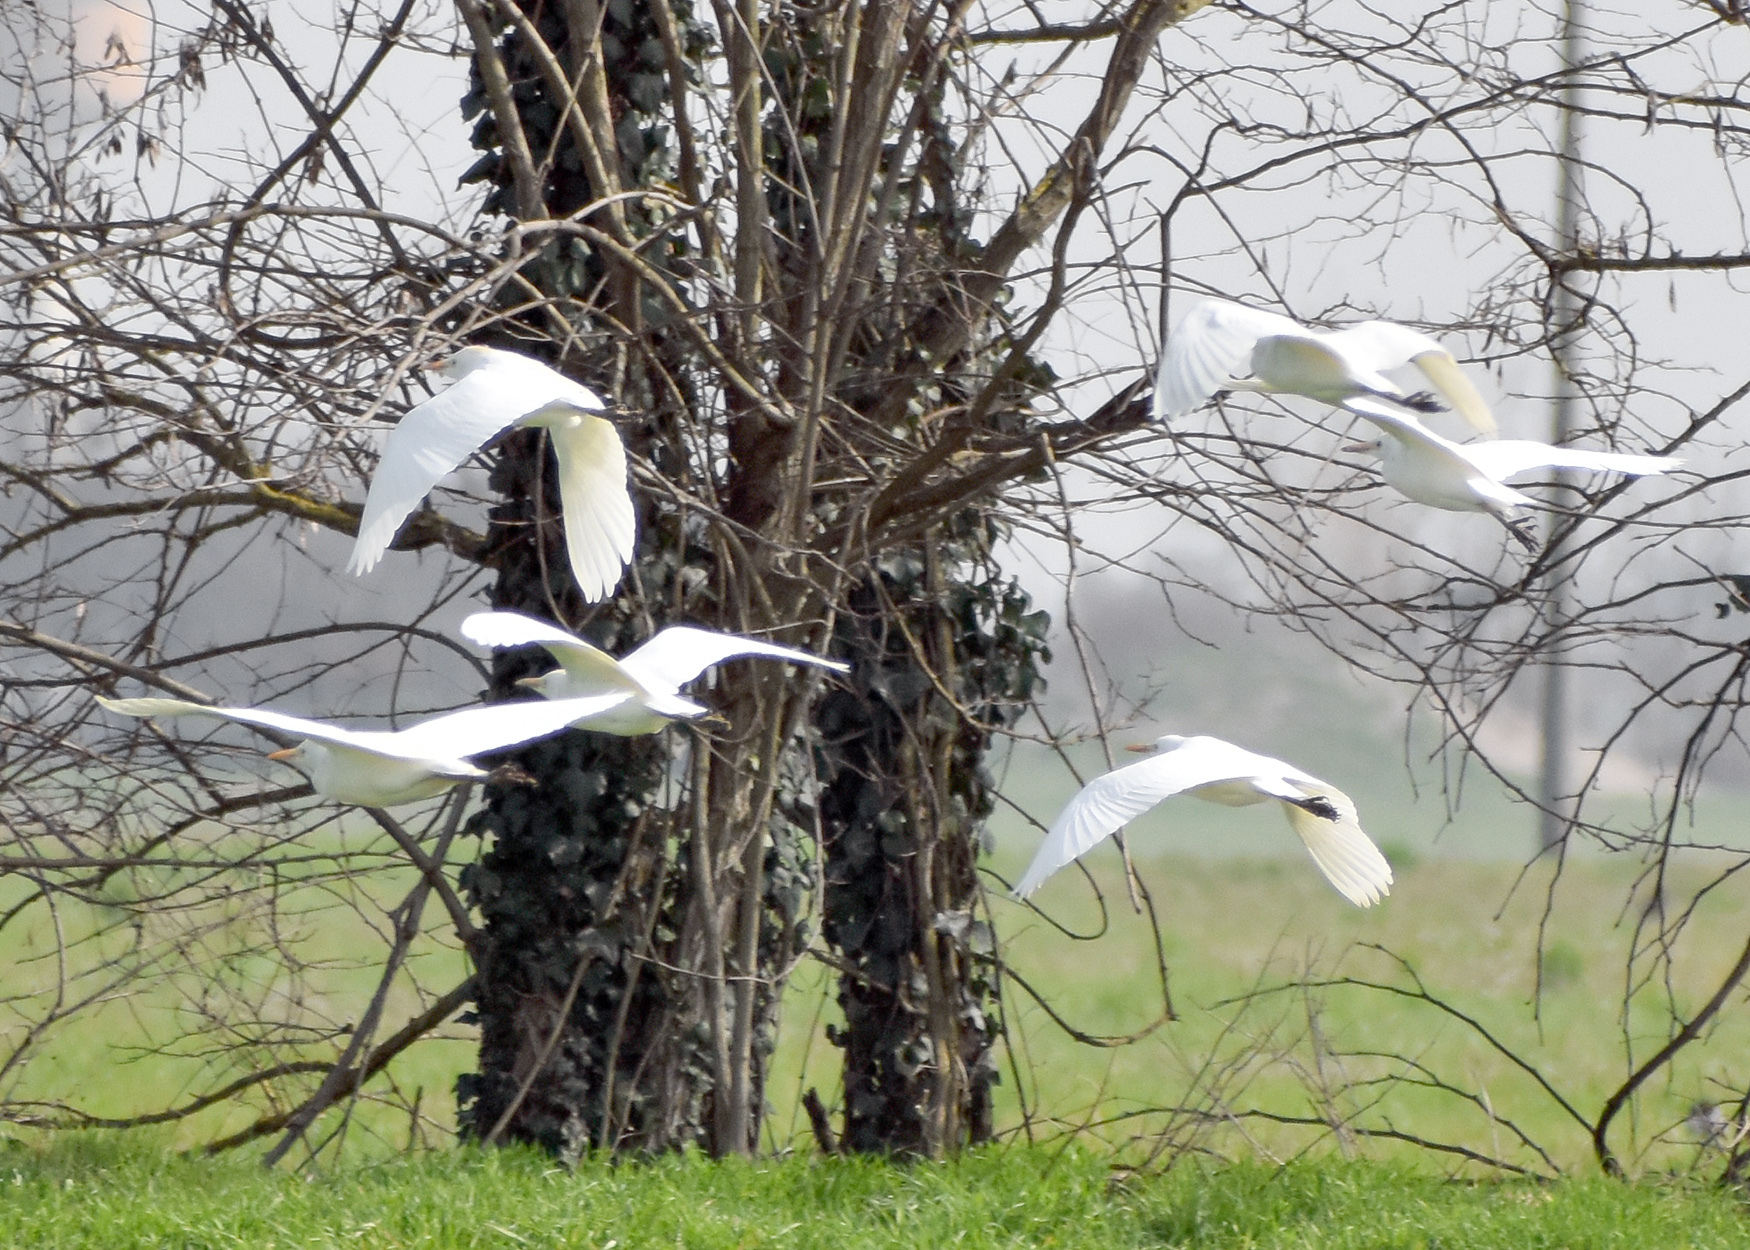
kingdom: Animalia
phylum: Chordata
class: Aves
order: Pelecaniformes
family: Ardeidae
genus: Bubulcus
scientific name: Bubulcus ibis
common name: Cattle egret
